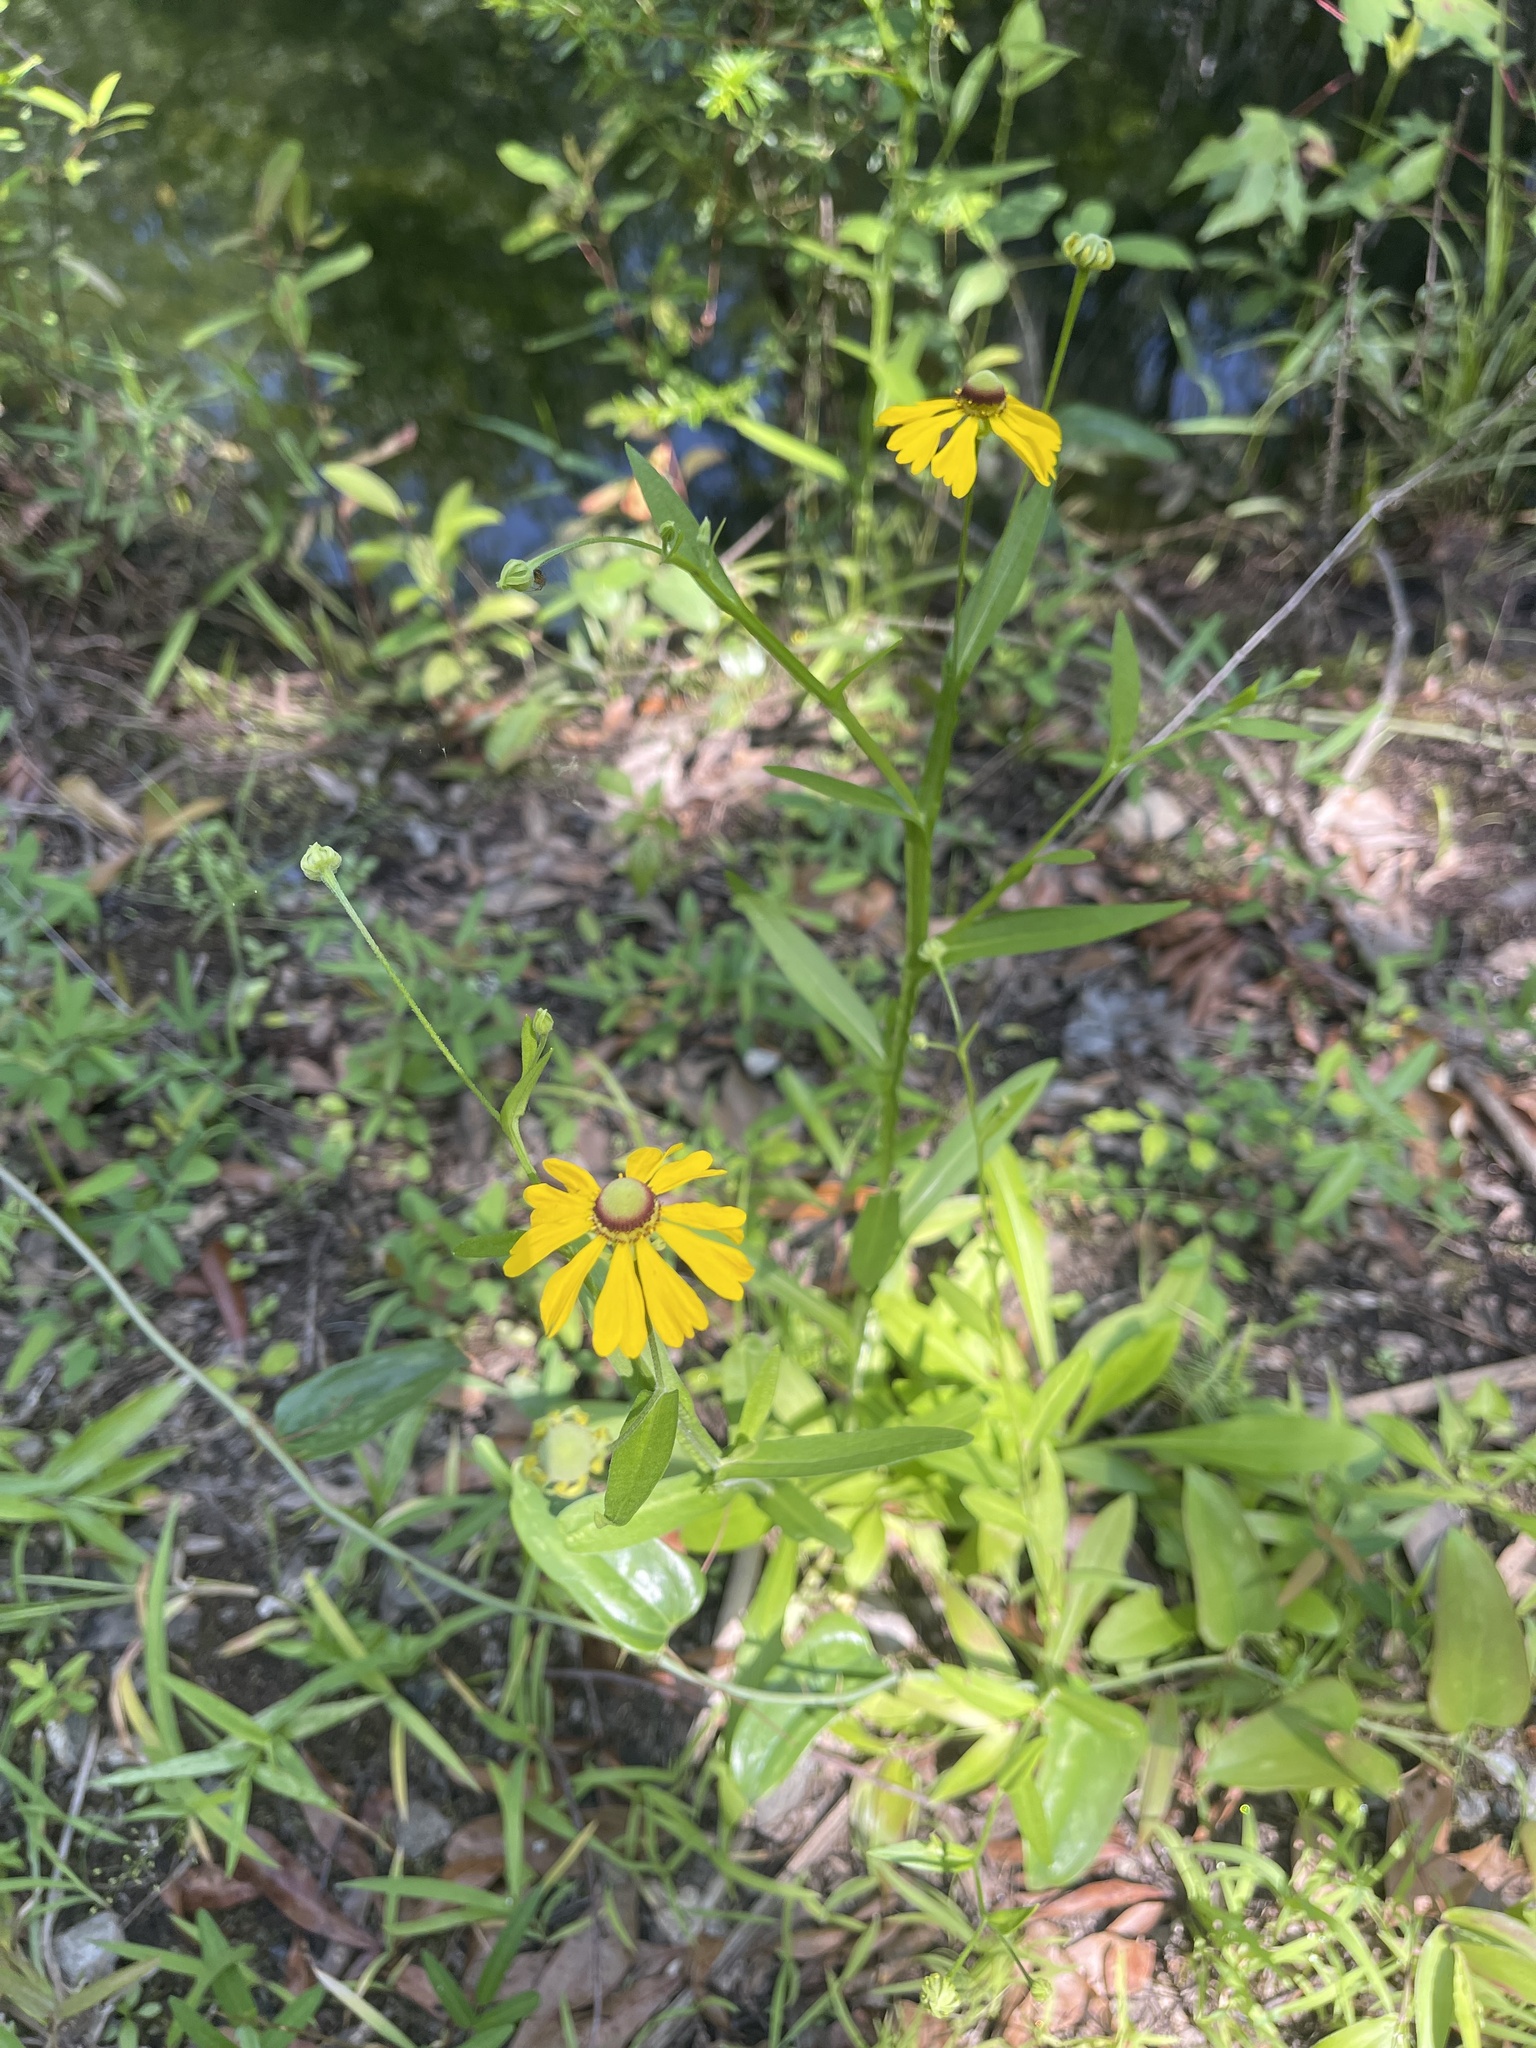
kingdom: Plantae
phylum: Tracheophyta
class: Magnoliopsida
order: Asterales
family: Asteraceae
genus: Helenium
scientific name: Helenium flexuosum
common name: Naked-flowered sneezeweed
